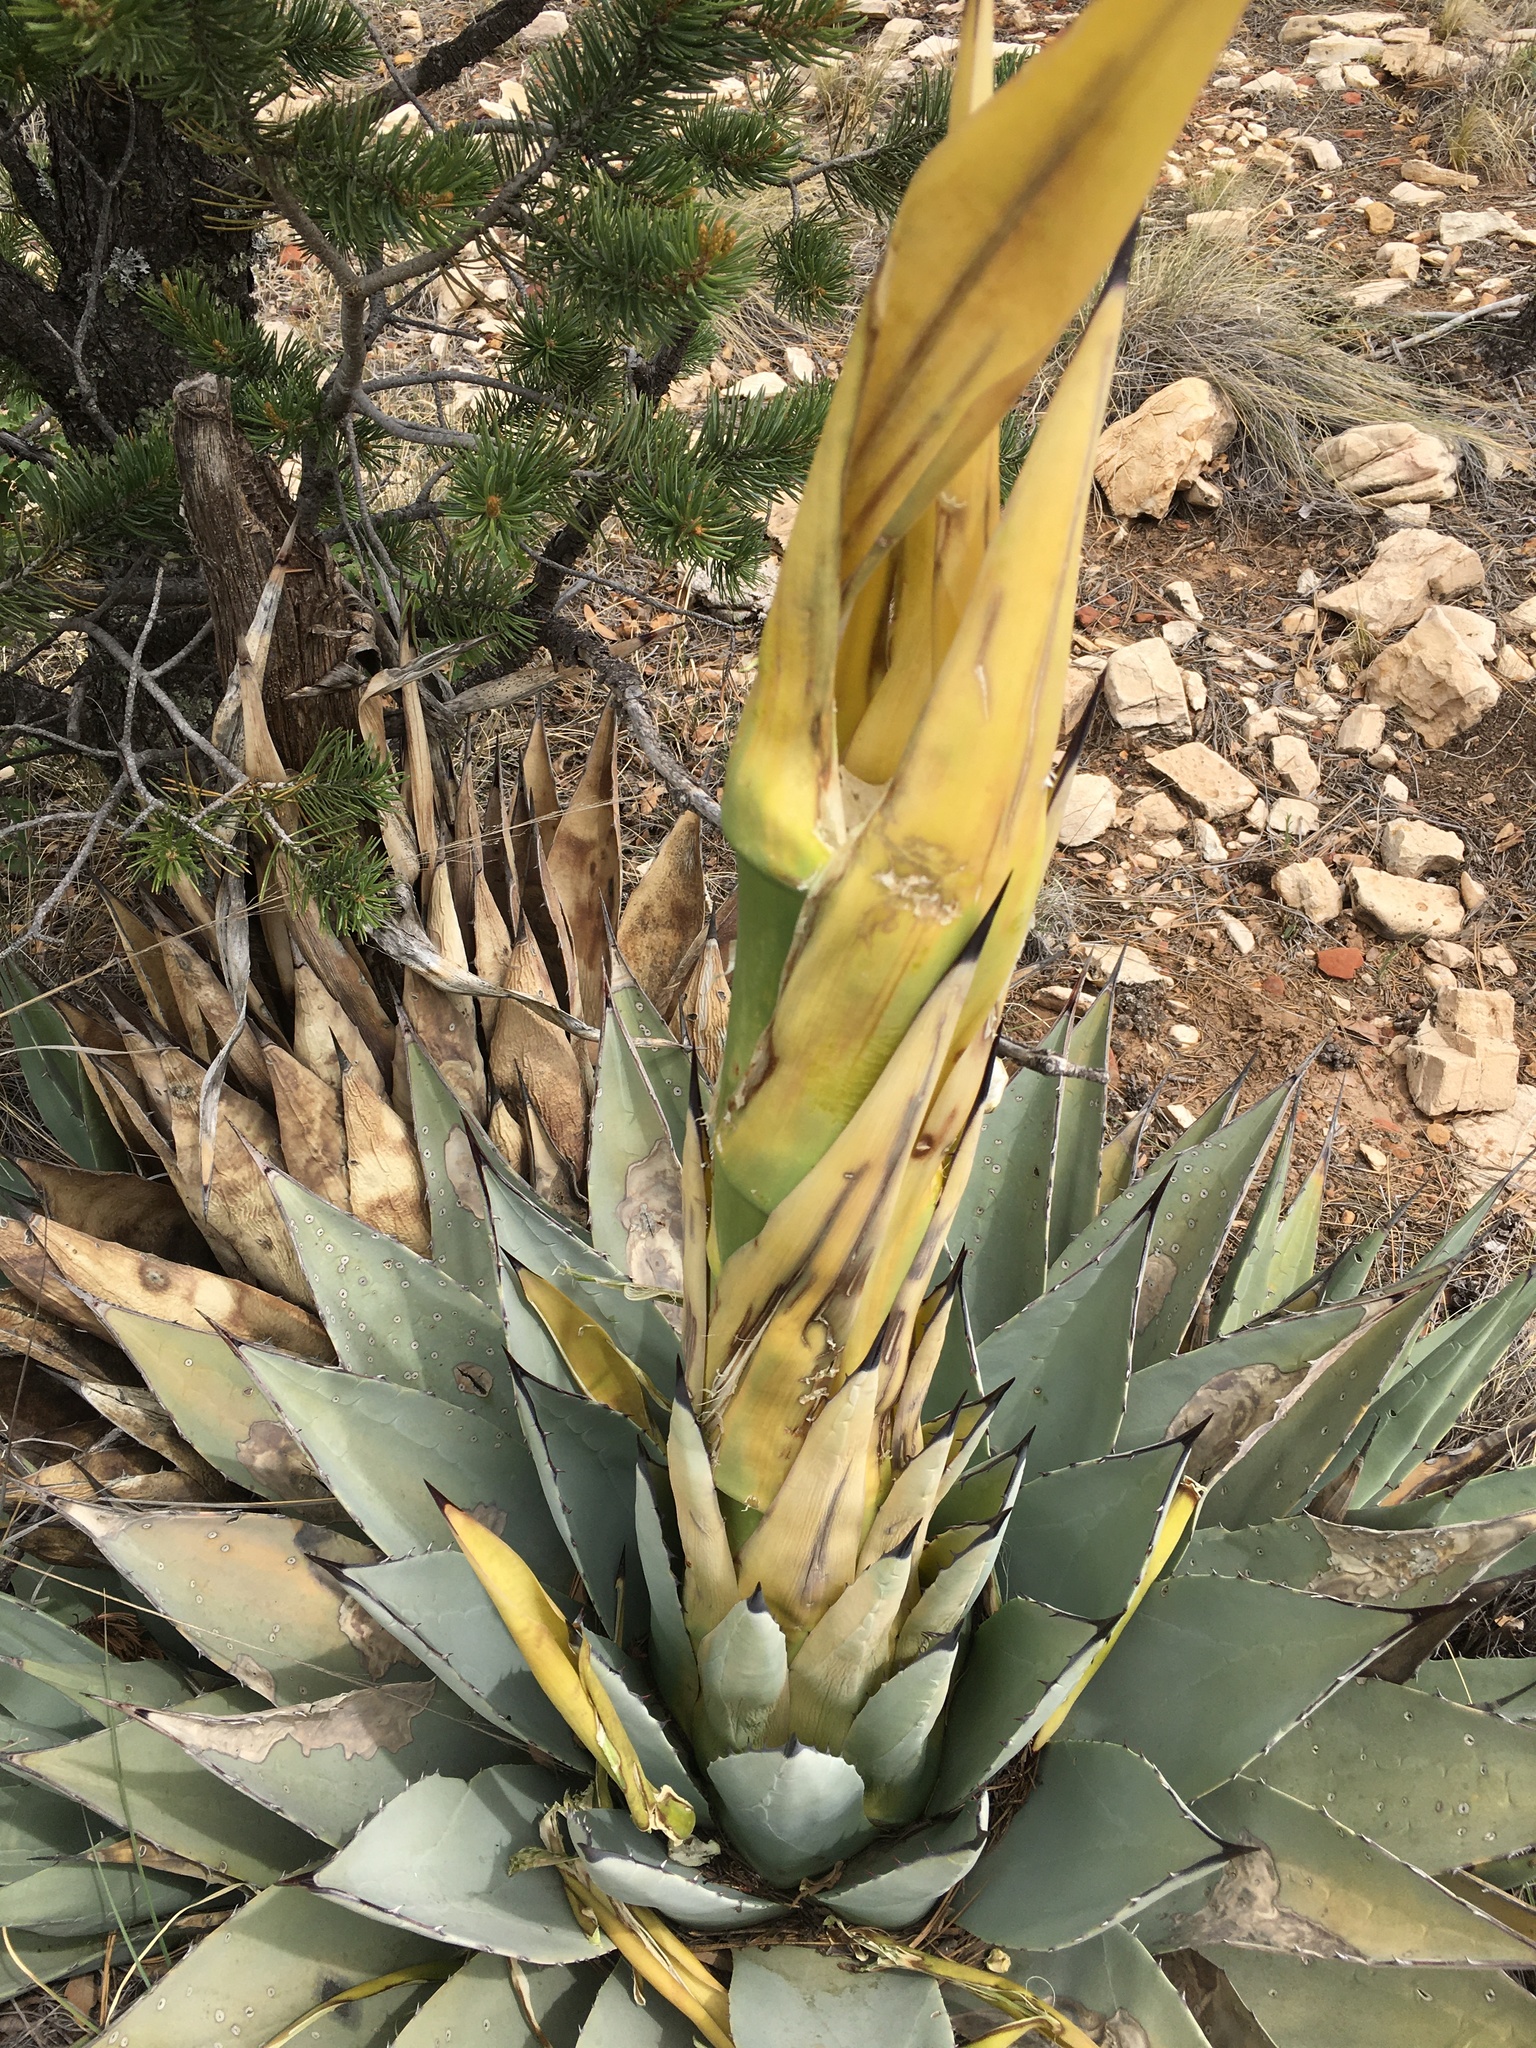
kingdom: Plantae
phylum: Tracheophyta
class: Liliopsida
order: Asparagales
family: Asparagaceae
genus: Agave
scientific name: Agave parryi
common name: Parry's agave
